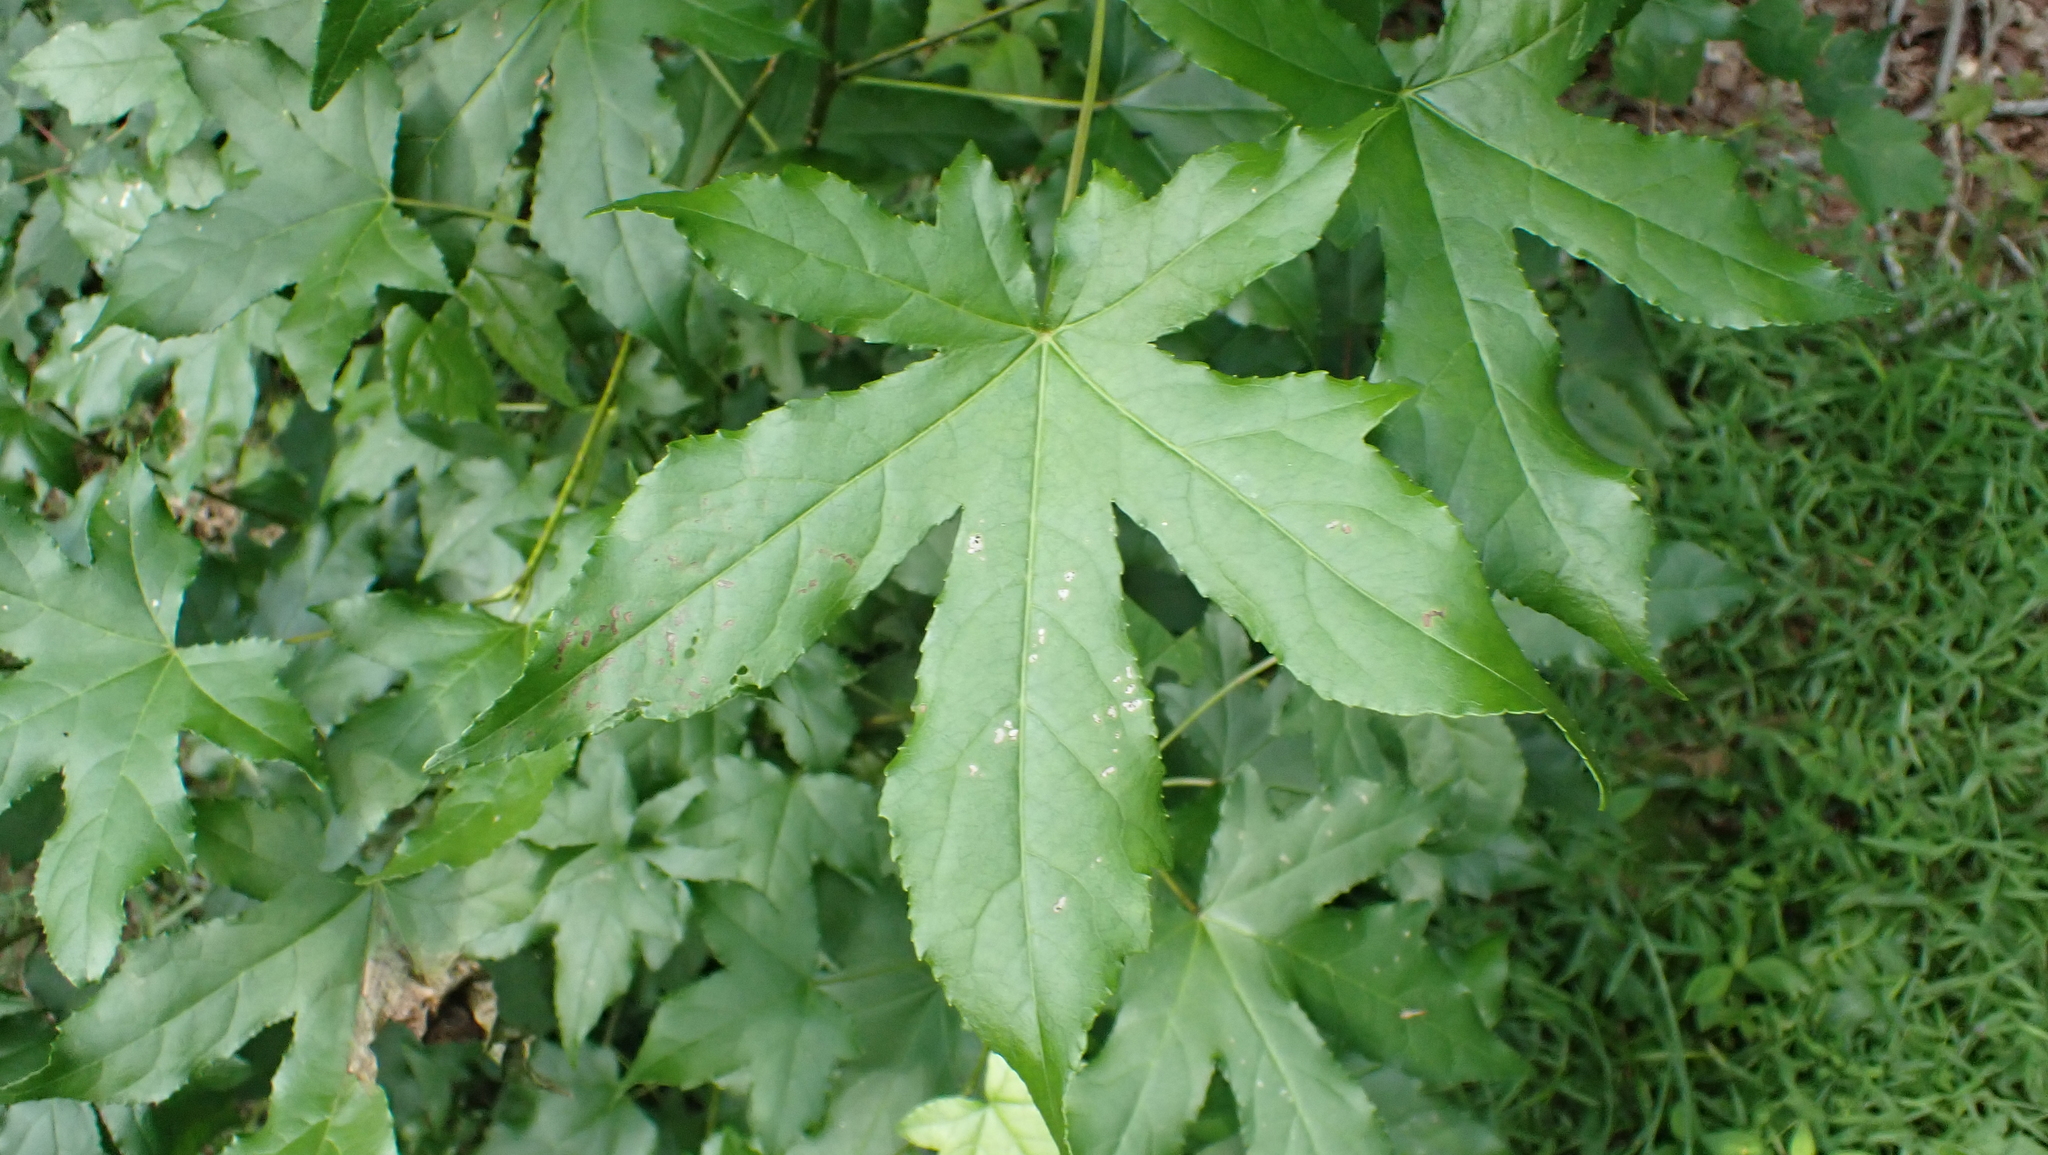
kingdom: Plantae
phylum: Tracheophyta
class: Magnoliopsida
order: Saxifragales
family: Altingiaceae
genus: Liquidambar
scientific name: Liquidambar styraciflua
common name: Sweet gum
